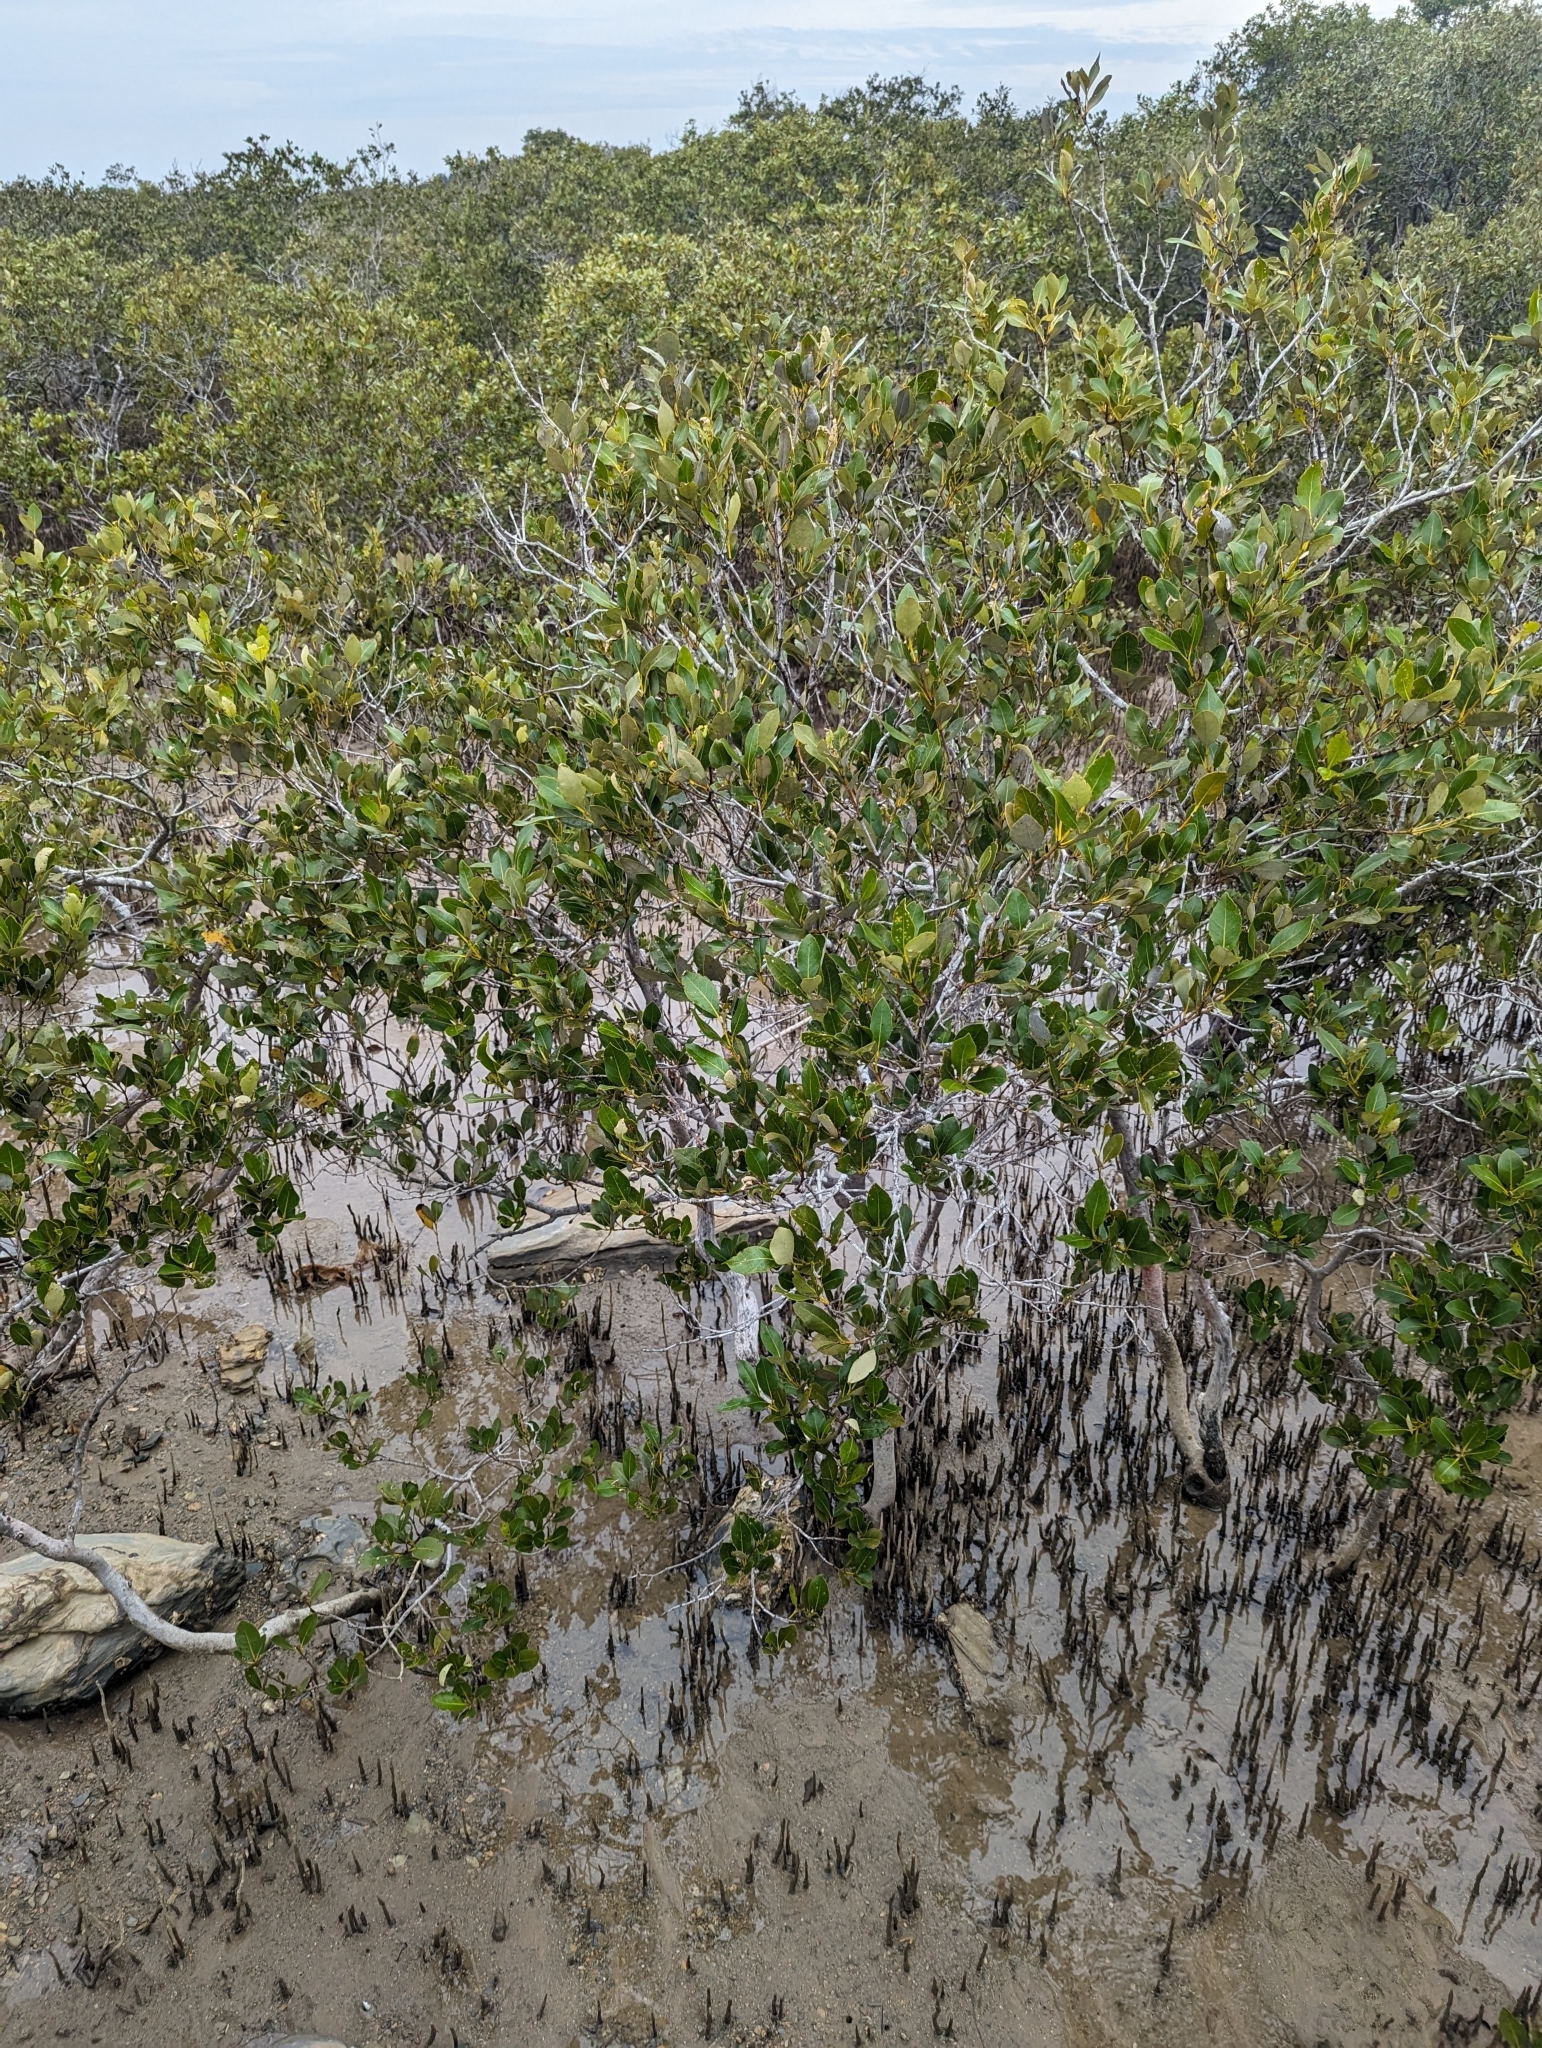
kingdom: Plantae
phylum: Tracheophyta
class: Magnoliopsida
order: Lamiales
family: Acanthaceae
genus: Avicennia
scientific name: Avicennia marina
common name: Gray mangrove
